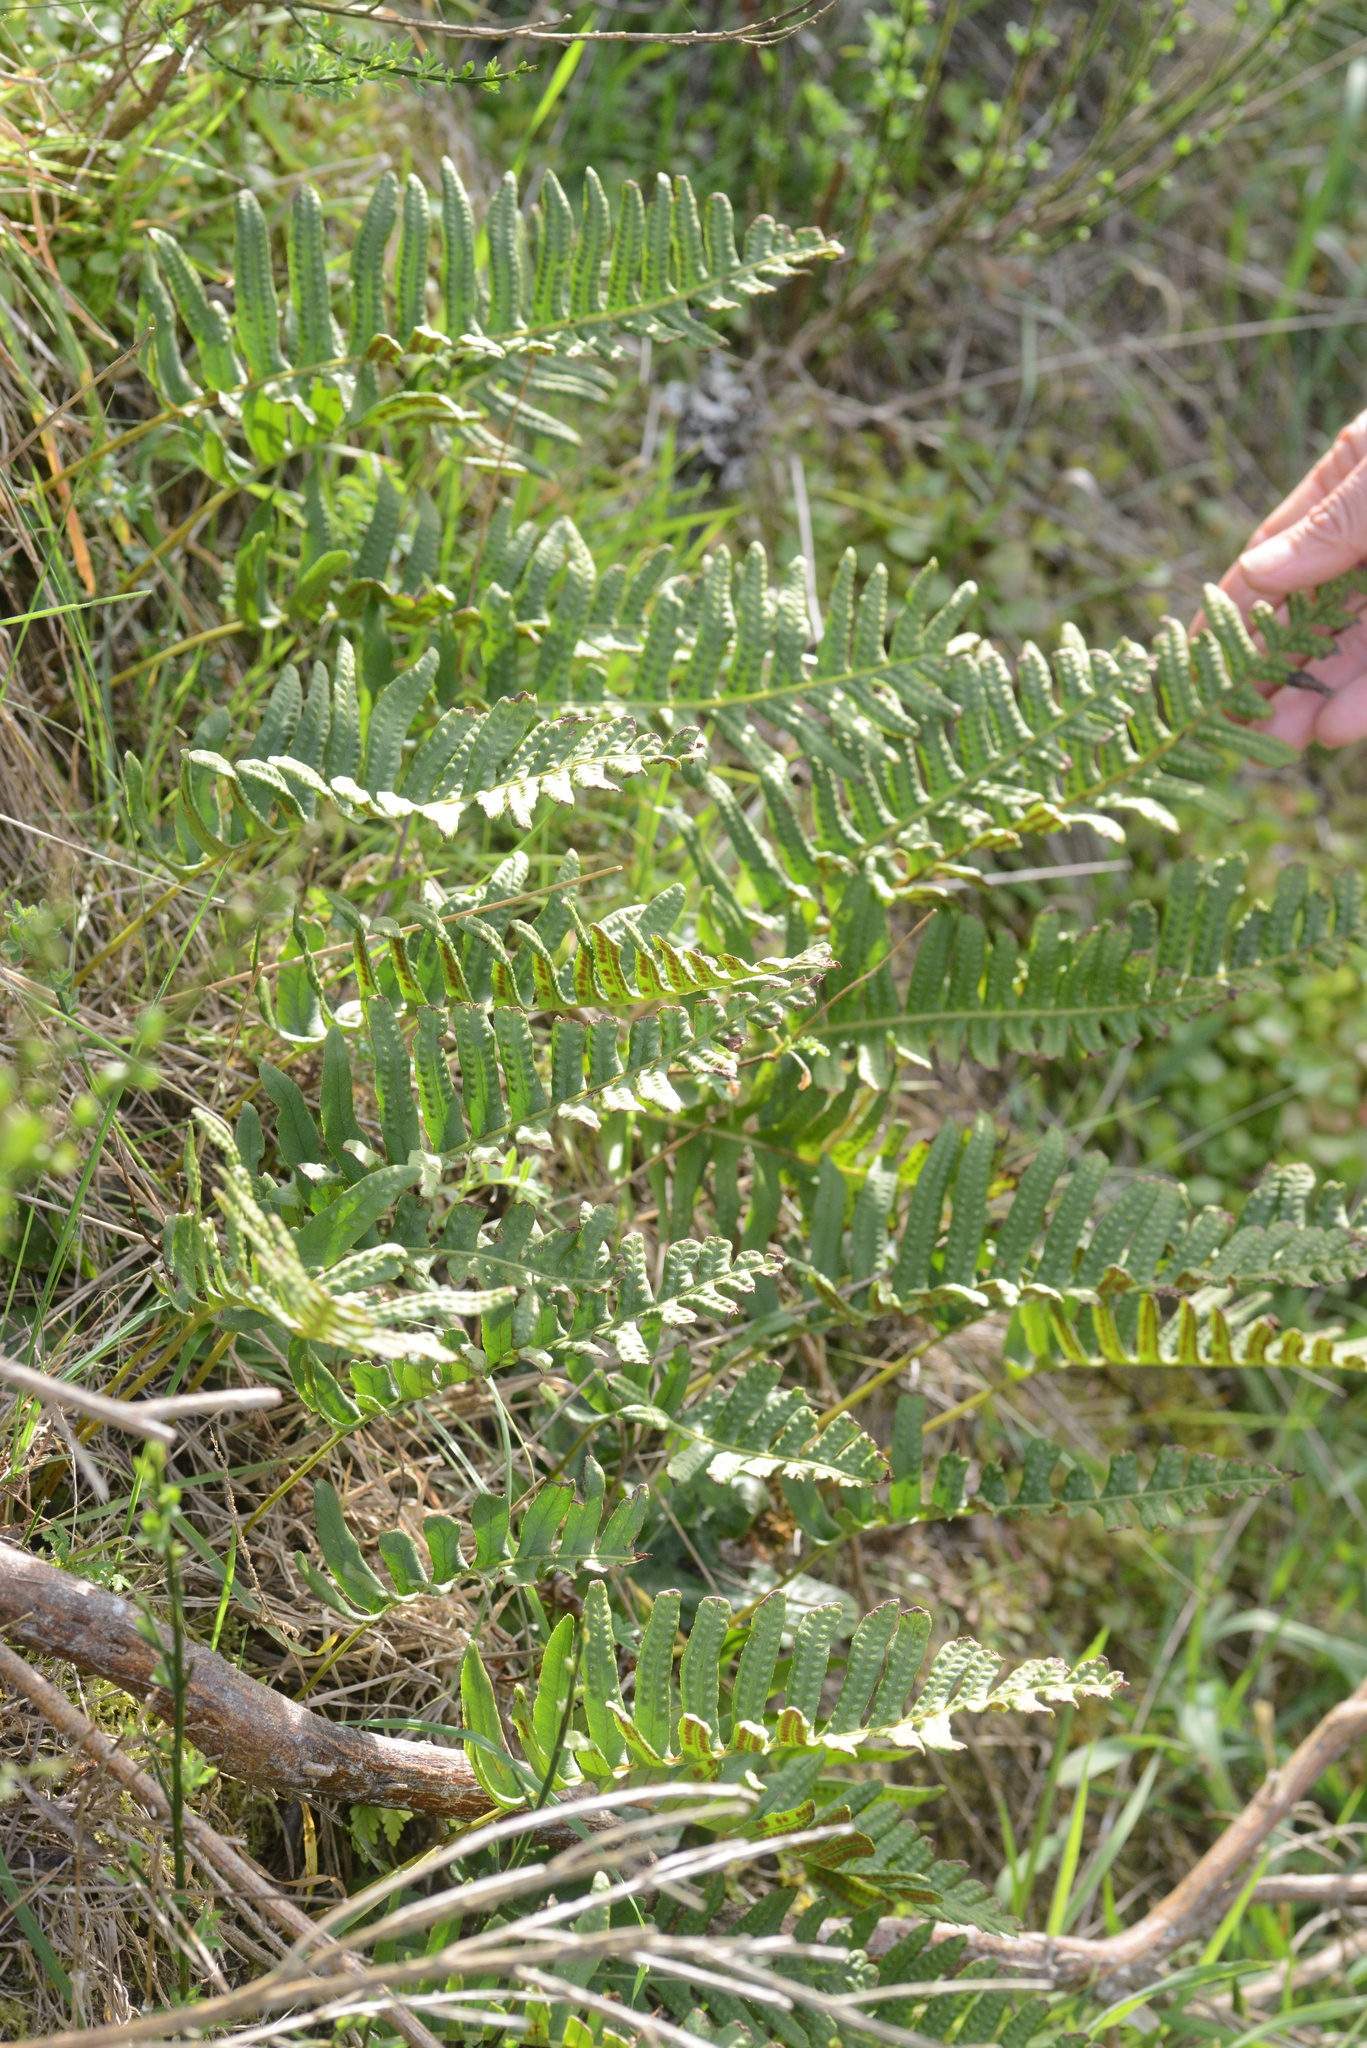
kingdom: Plantae
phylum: Tracheophyta
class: Polypodiopsida
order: Polypodiales
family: Polypodiaceae
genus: Polypodium
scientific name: Polypodium vulgare
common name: Common polypody
